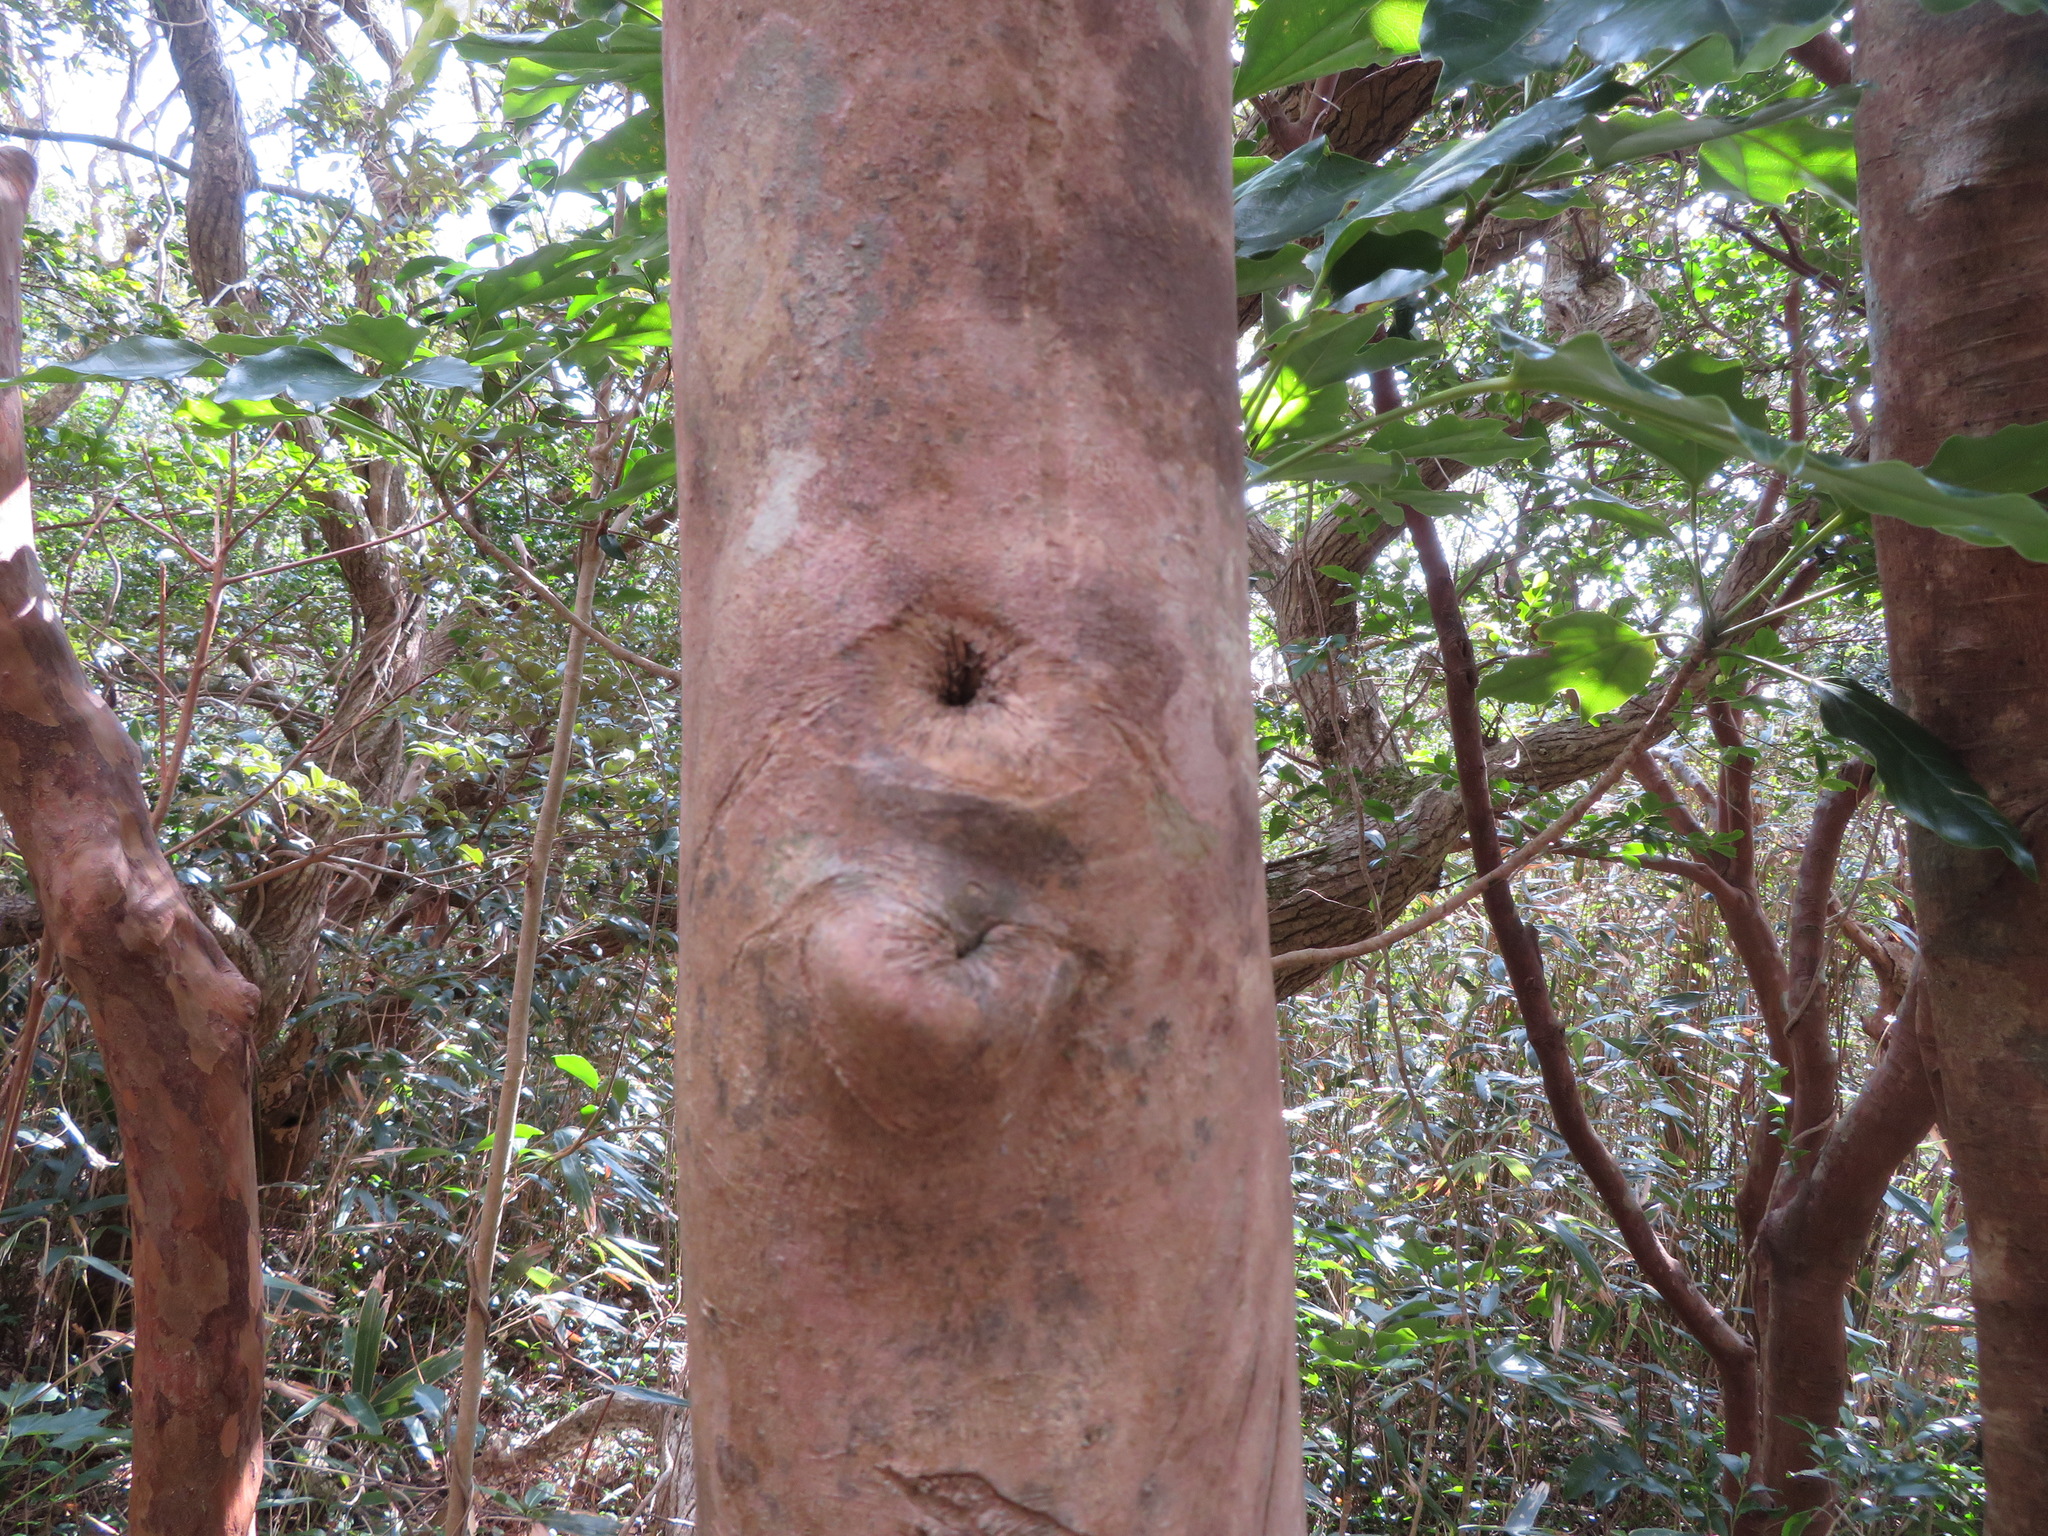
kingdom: Plantae
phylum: Tracheophyta
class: Magnoliopsida
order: Ericales
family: Theaceae
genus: Camellia
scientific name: Camellia japonica
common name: Camellia
